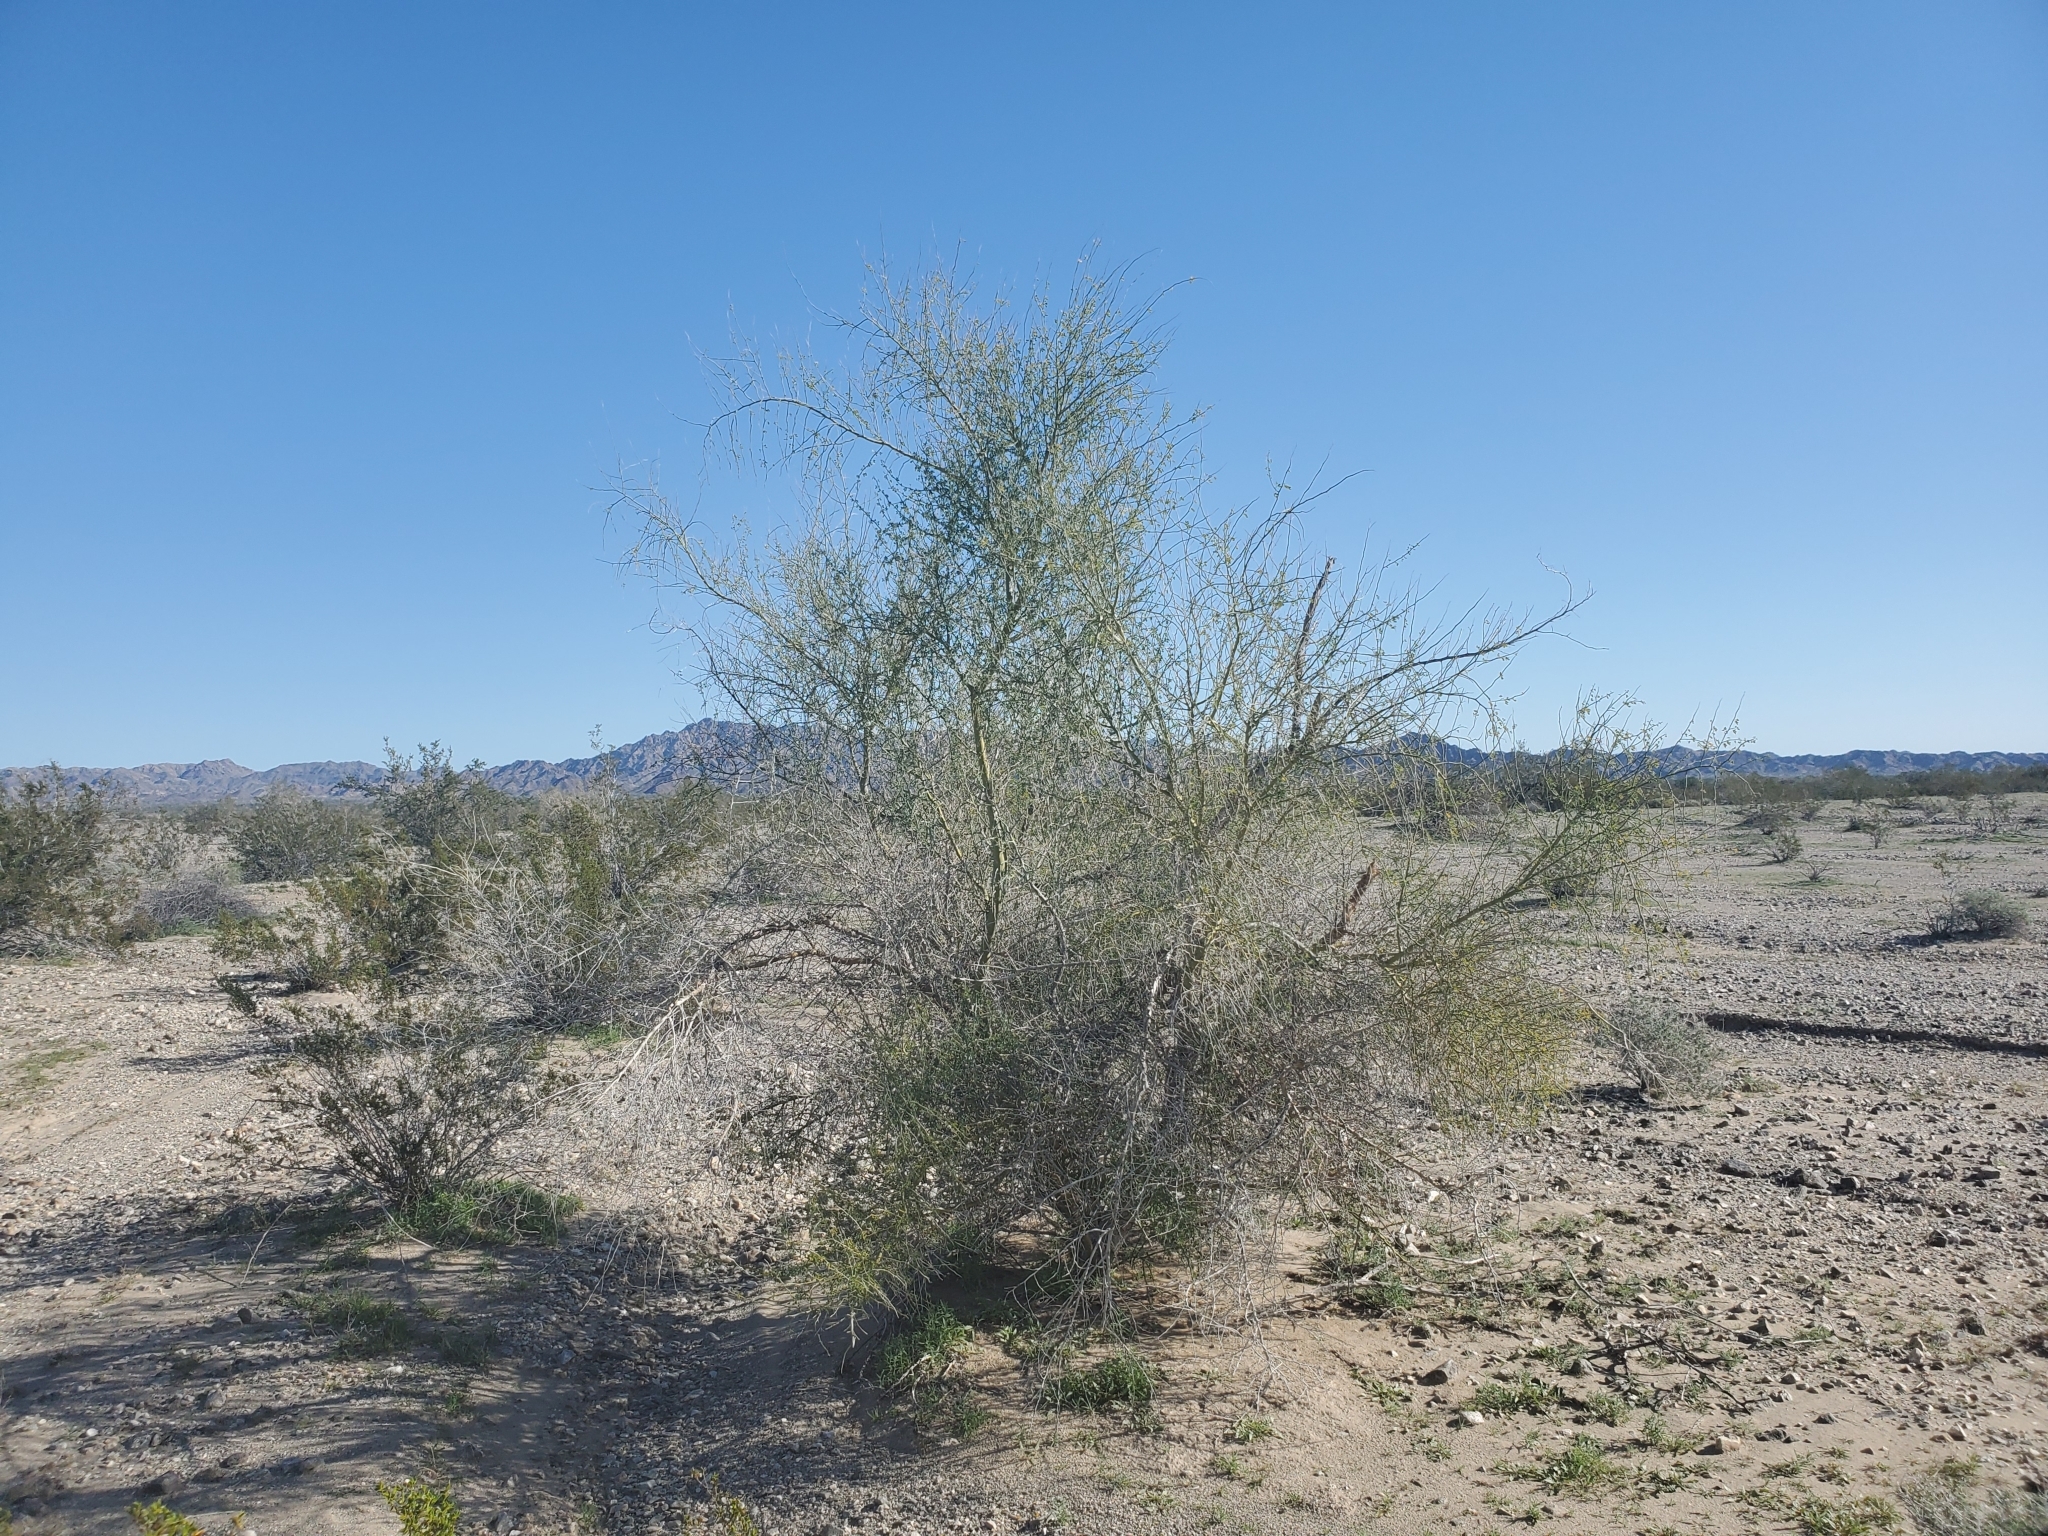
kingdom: Plantae
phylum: Tracheophyta
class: Magnoliopsida
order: Fabales
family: Fabaceae
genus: Parkinsonia
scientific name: Parkinsonia florida
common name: Blue paloverde
